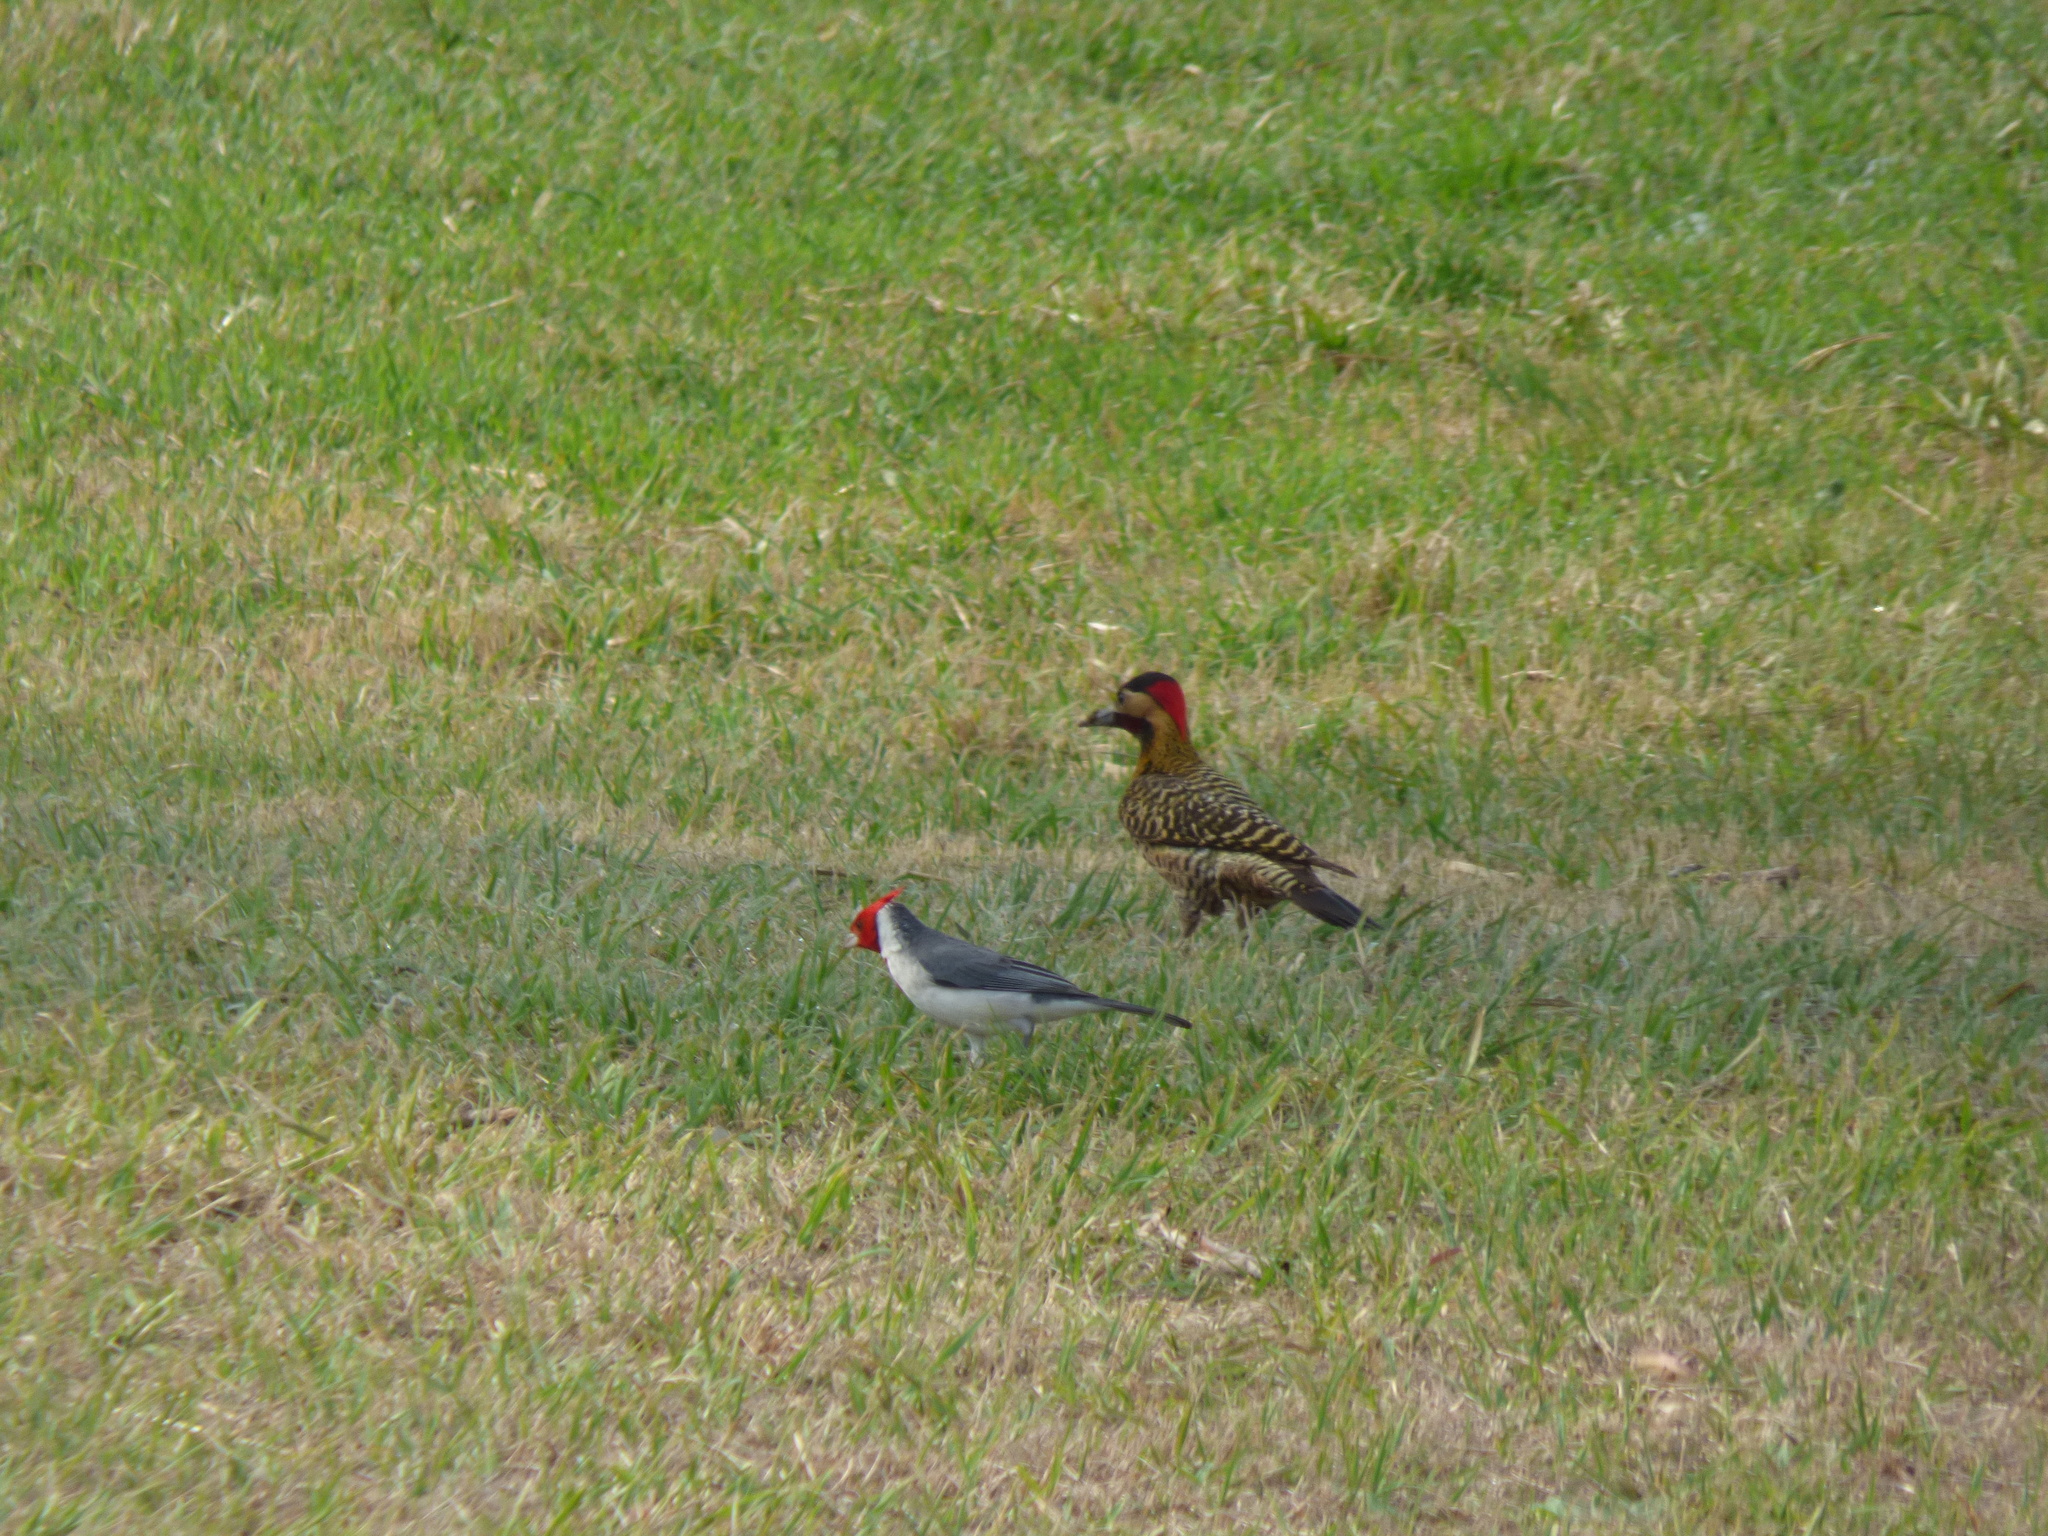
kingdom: Animalia
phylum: Chordata
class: Aves
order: Piciformes
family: Picidae
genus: Colaptes
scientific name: Colaptes melanochloros
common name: Green-barred woodpecker
